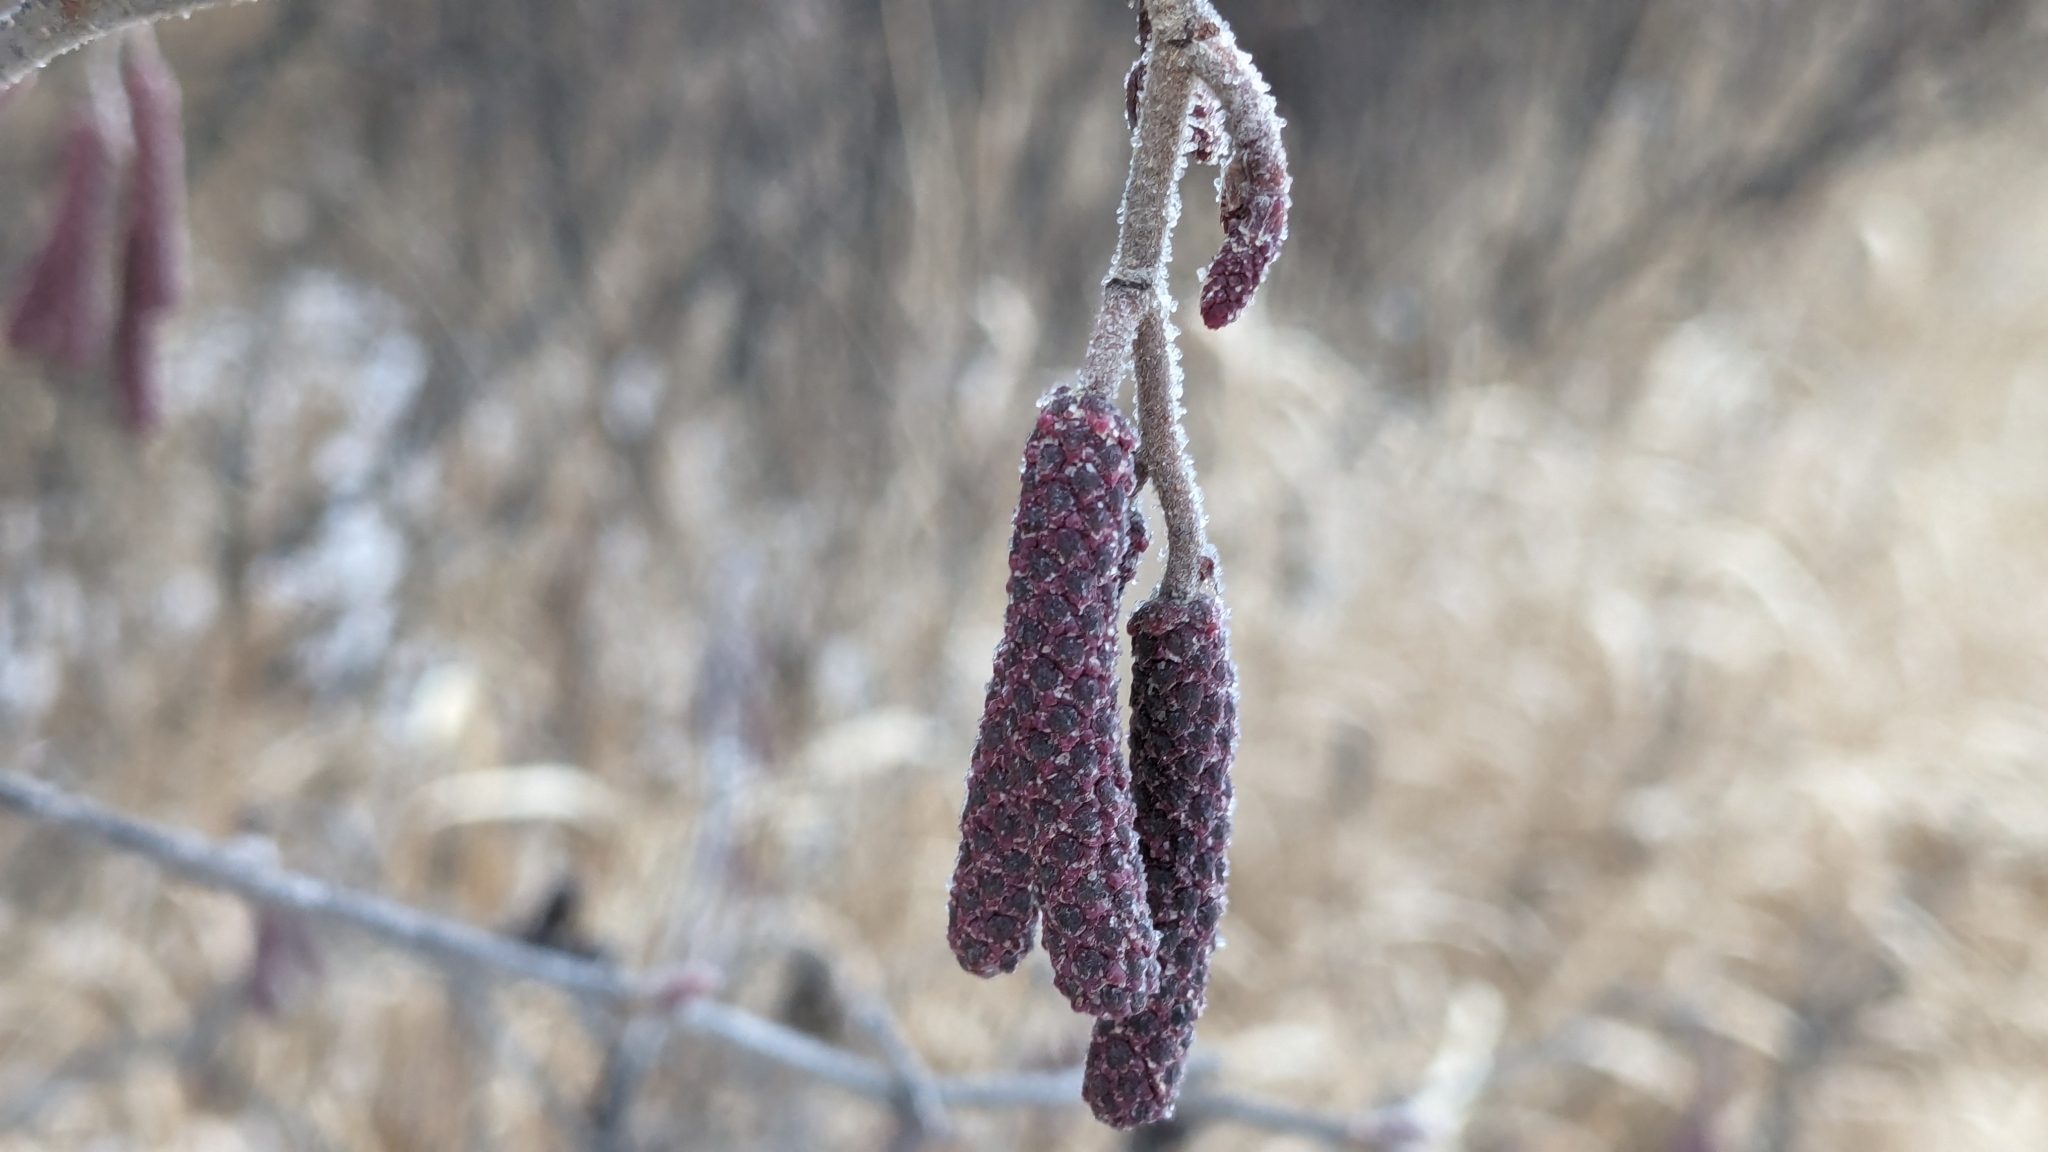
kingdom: Plantae
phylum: Tracheophyta
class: Magnoliopsida
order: Fagales
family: Betulaceae
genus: Alnus
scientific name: Alnus incana
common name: Grey alder
